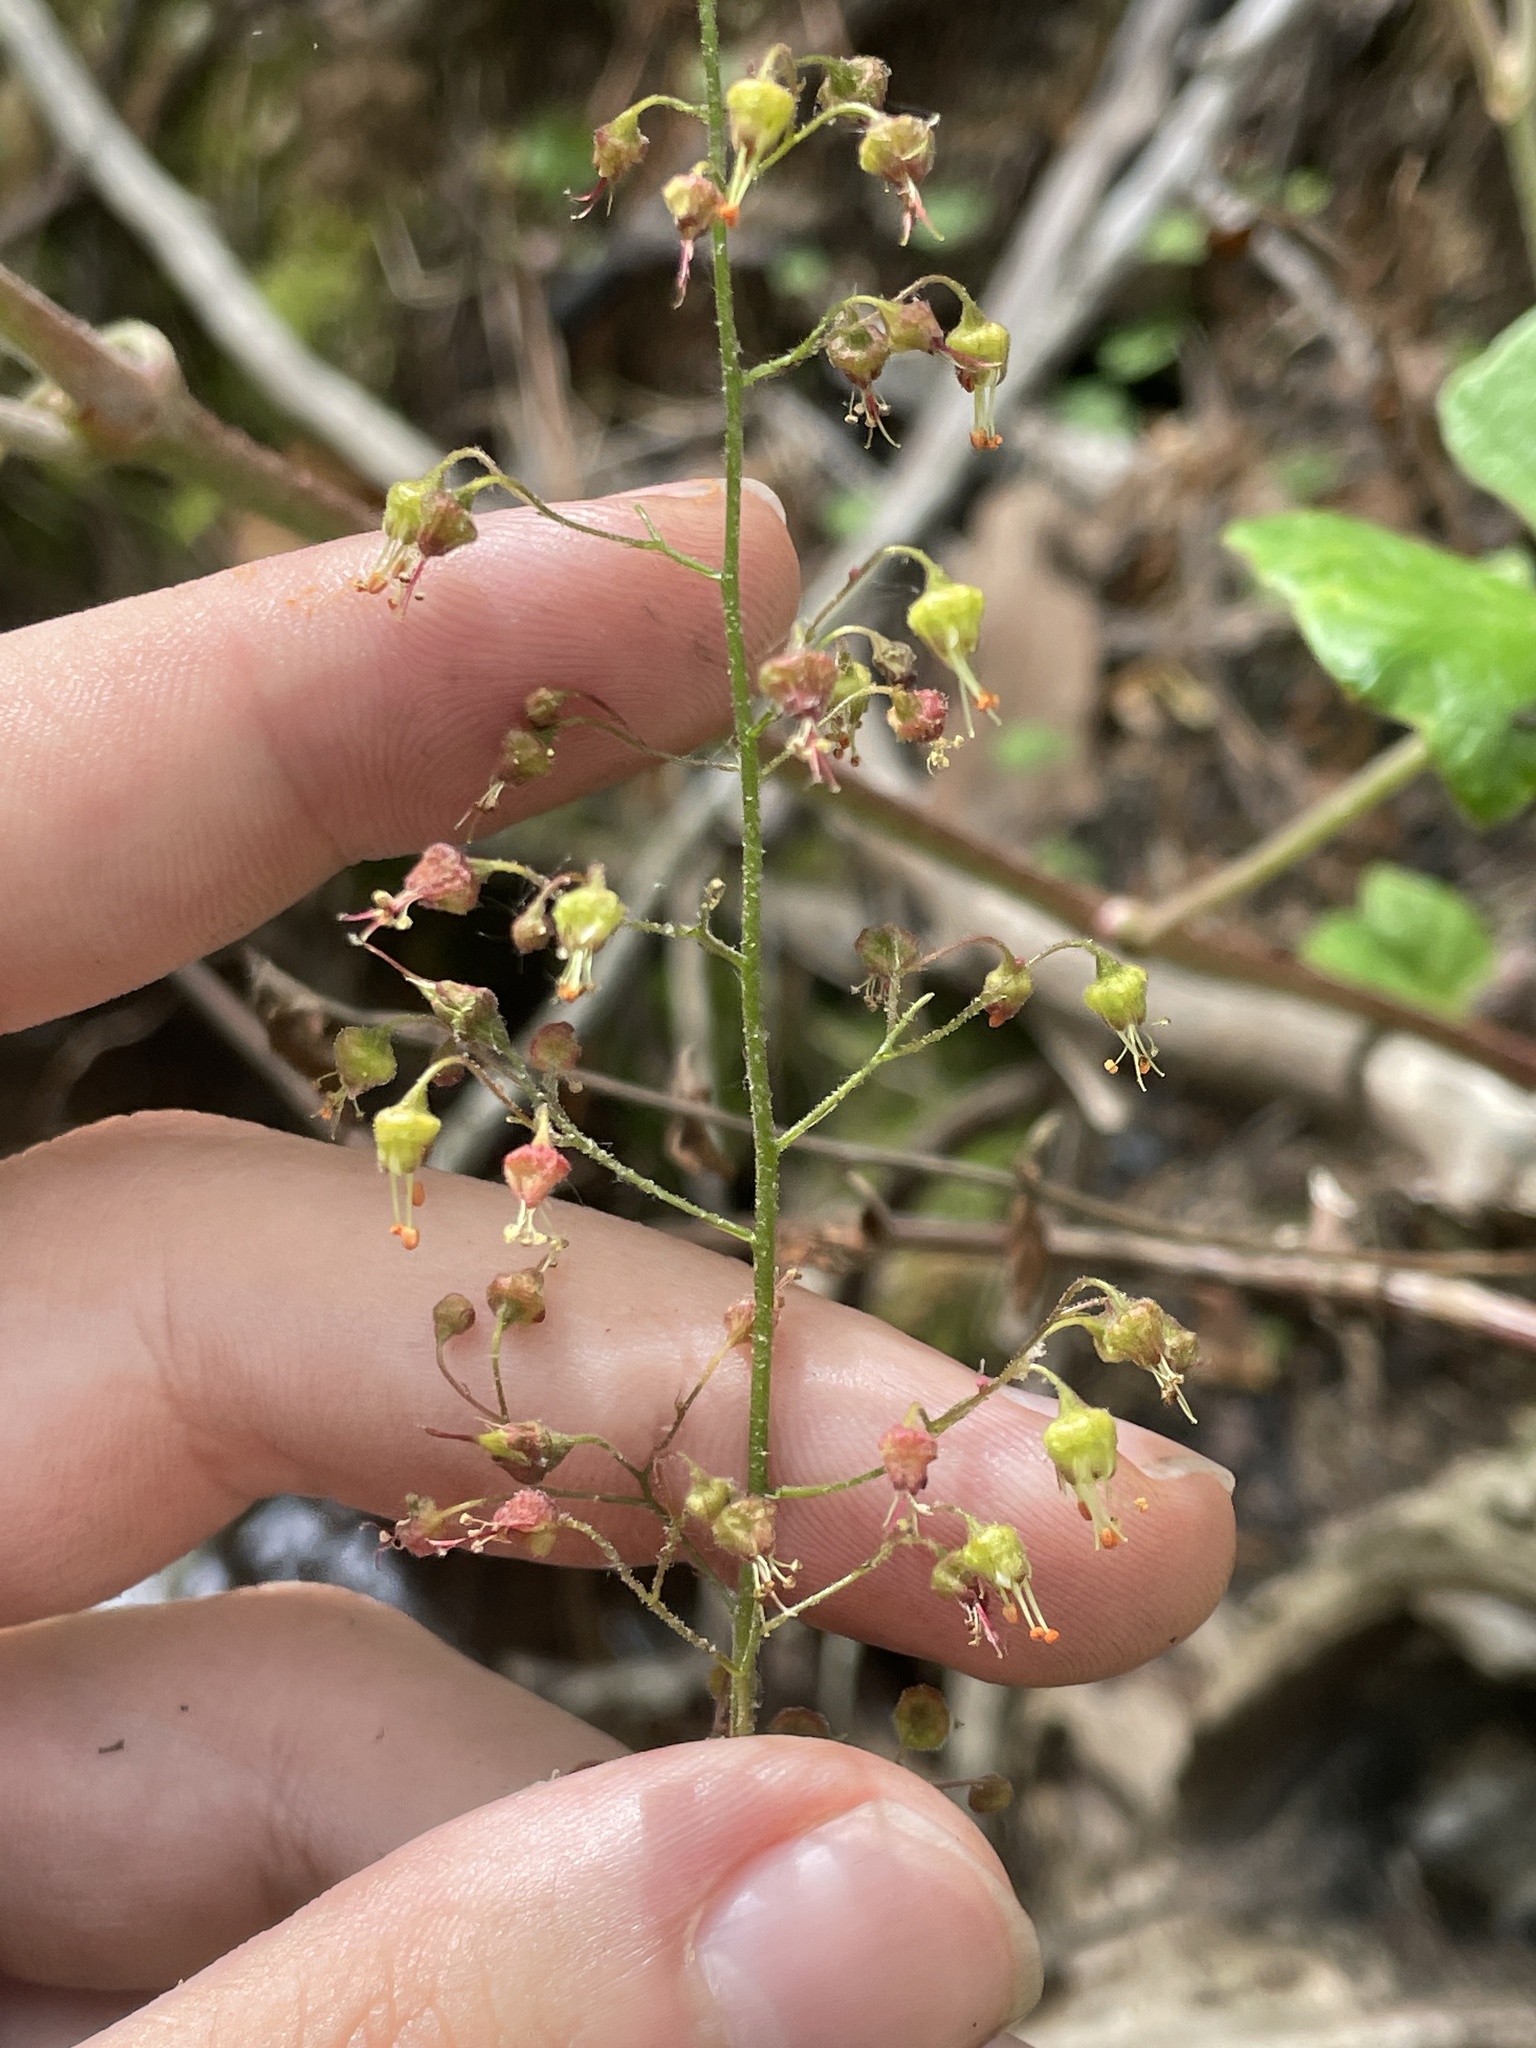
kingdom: Plantae
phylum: Tracheophyta
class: Magnoliopsida
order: Saxifragales
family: Saxifragaceae
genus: Heuchera
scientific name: Heuchera americana
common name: Alumroot
